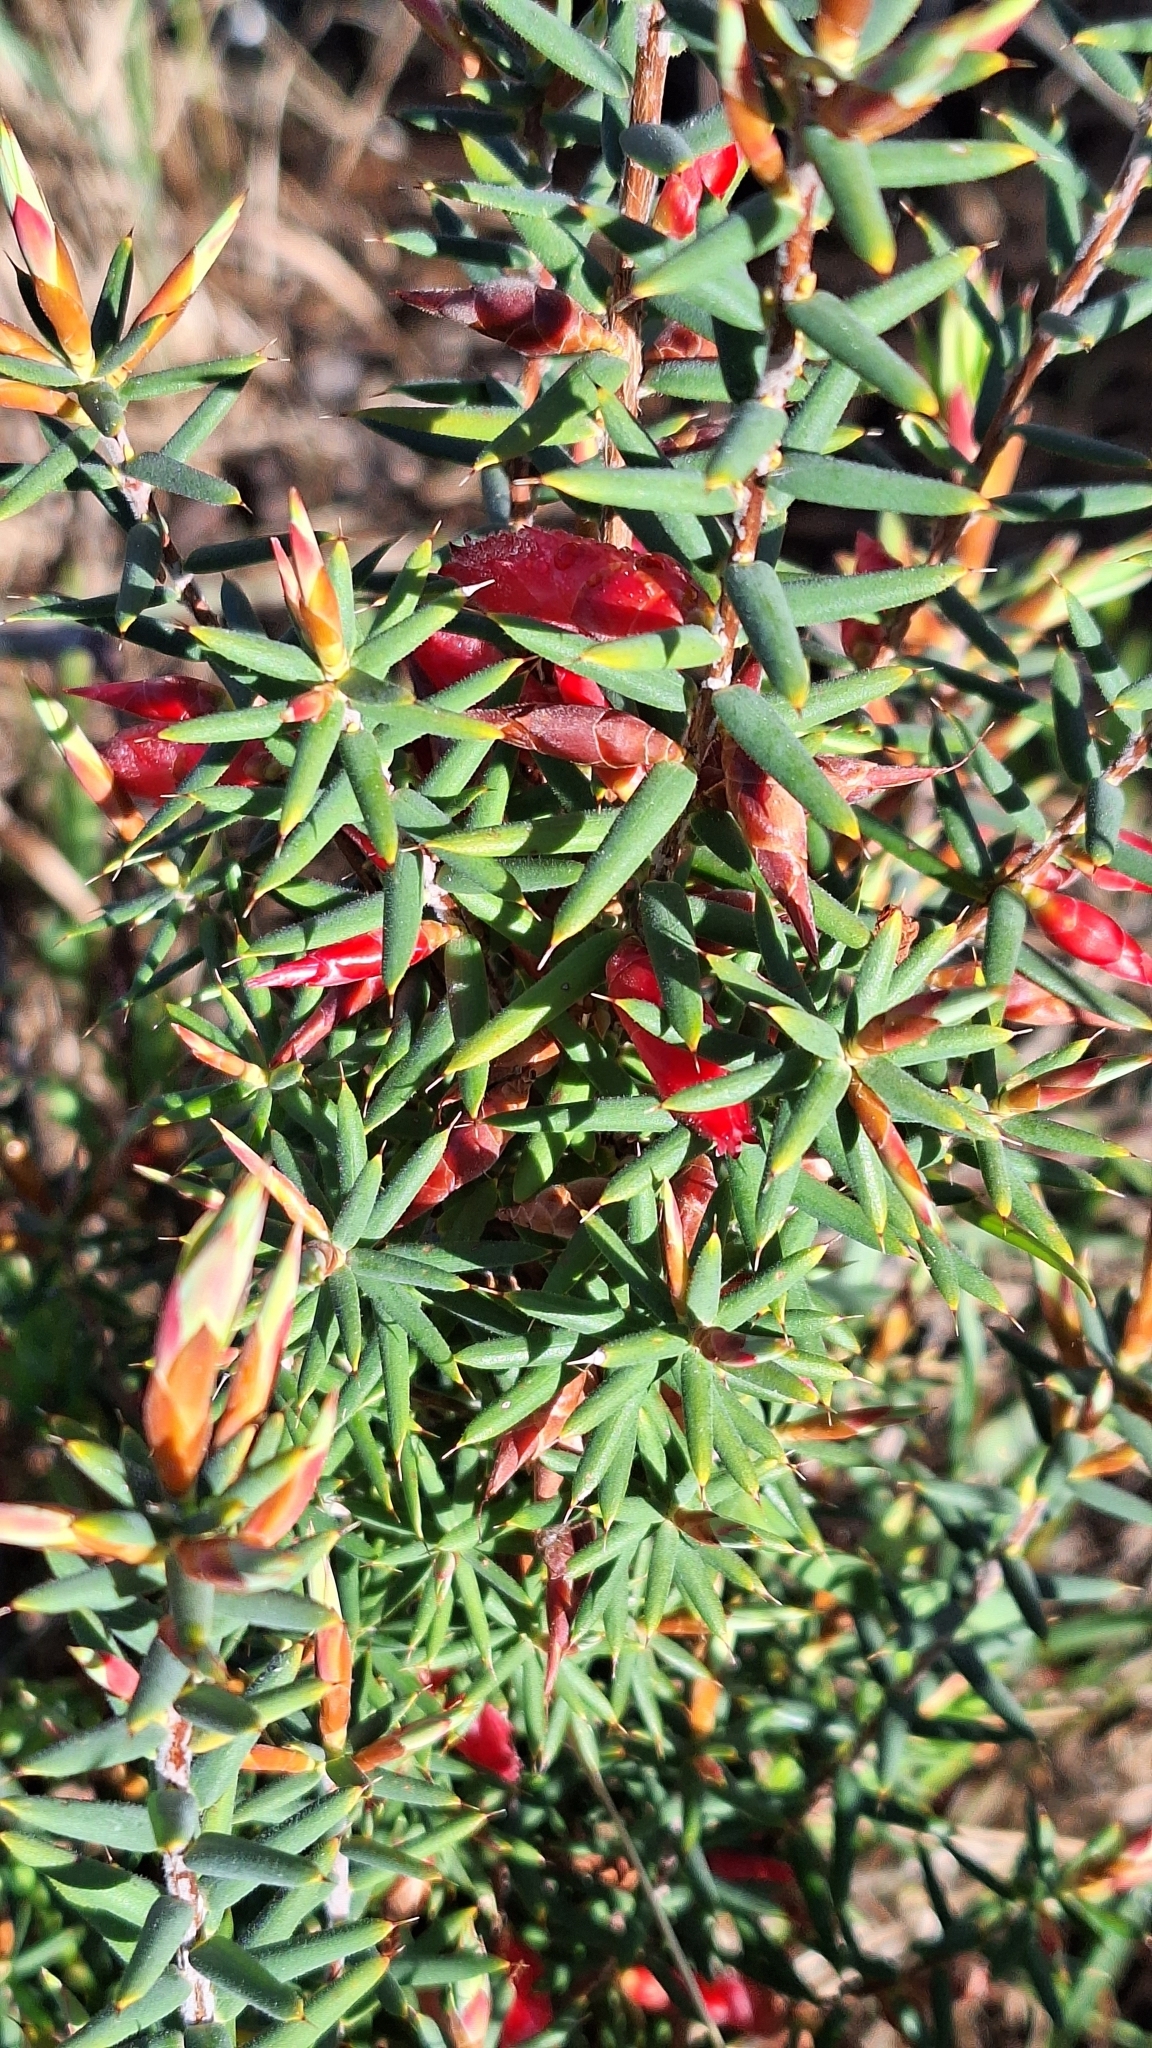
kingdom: Plantae
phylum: Tracheophyta
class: Magnoliopsida
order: Ericales
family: Ericaceae
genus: Stenanthera
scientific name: Stenanthera conostephioides
